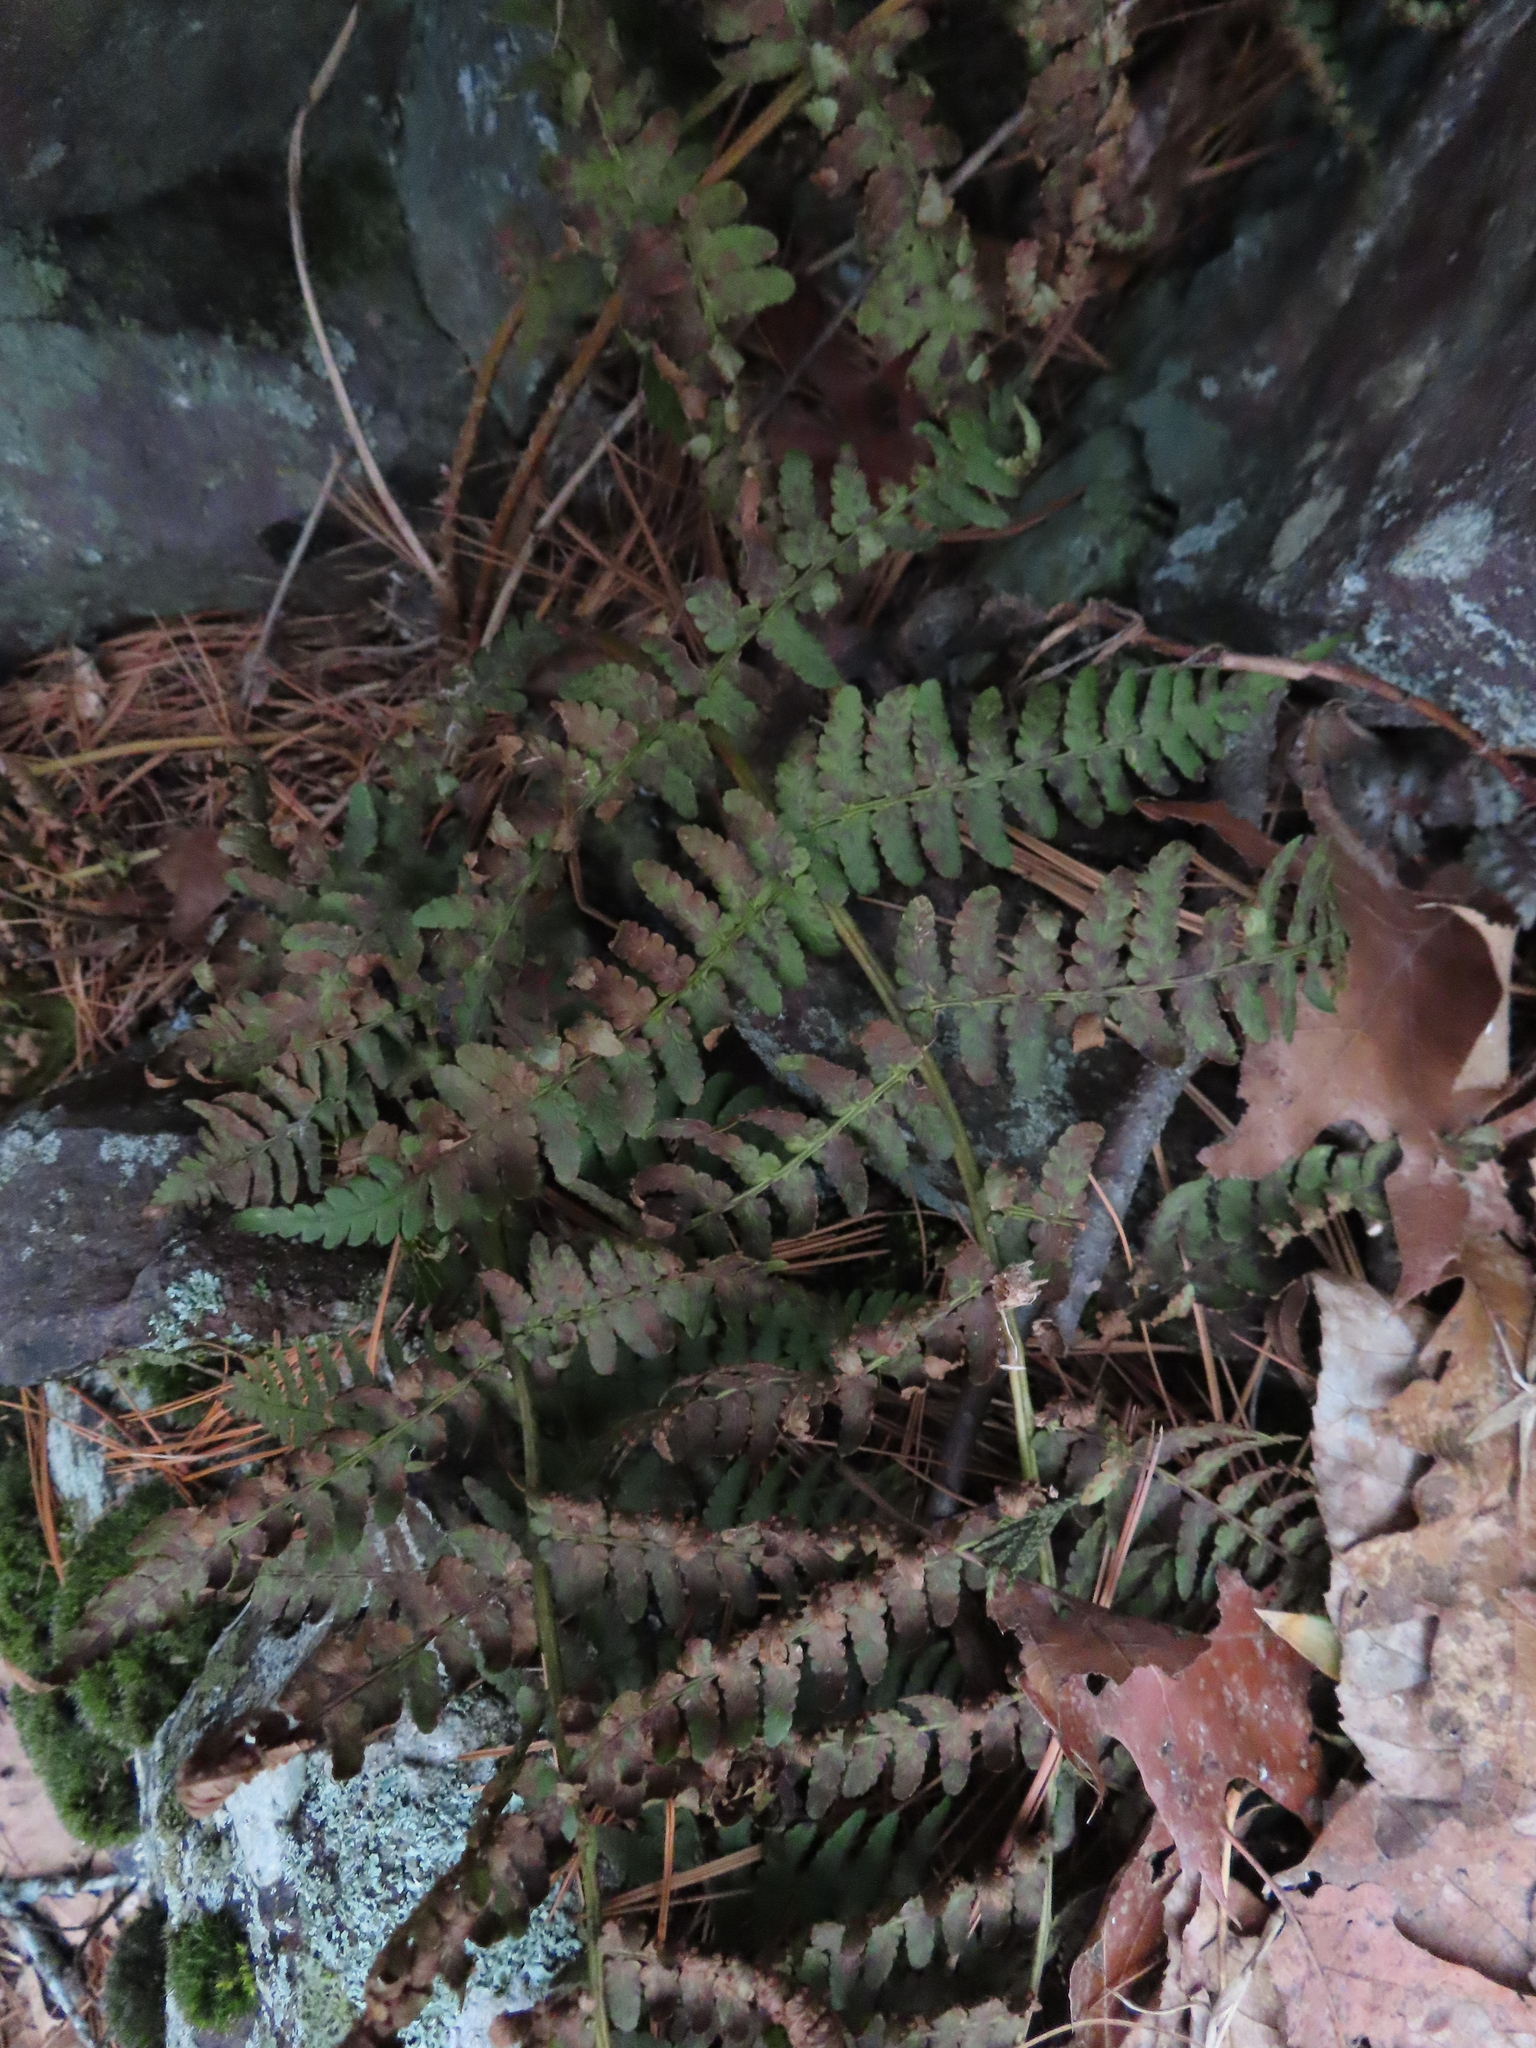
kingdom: Plantae
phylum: Tracheophyta
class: Polypodiopsida
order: Polypodiales
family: Dryopteridaceae
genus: Dryopteris
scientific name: Dryopteris marginalis
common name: Marginal wood fern
